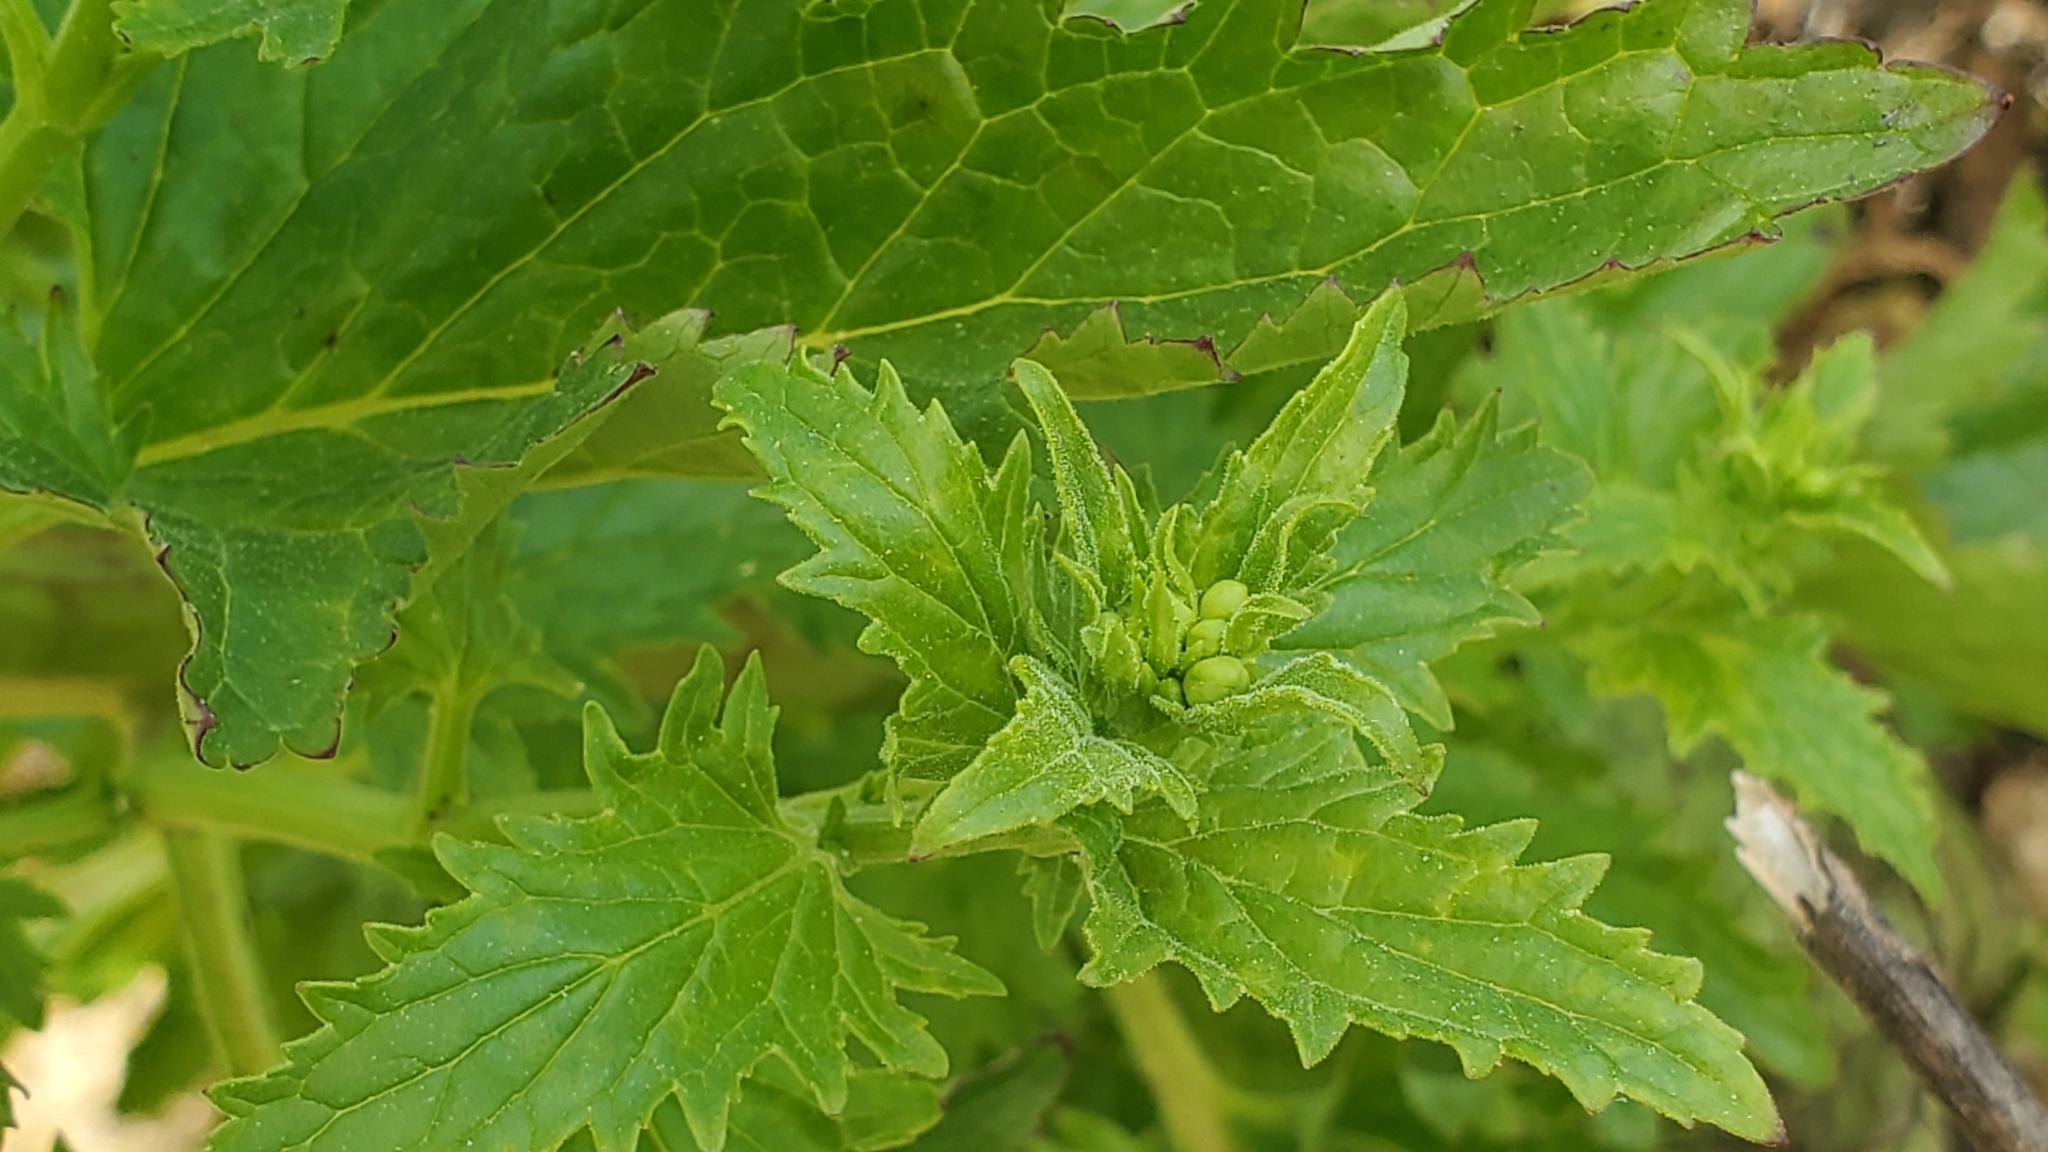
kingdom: Plantae
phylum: Tracheophyta
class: Magnoliopsida
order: Lamiales
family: Scrophulariaceae
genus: Scrophularia
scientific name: Scrophularia californica
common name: California figwort
